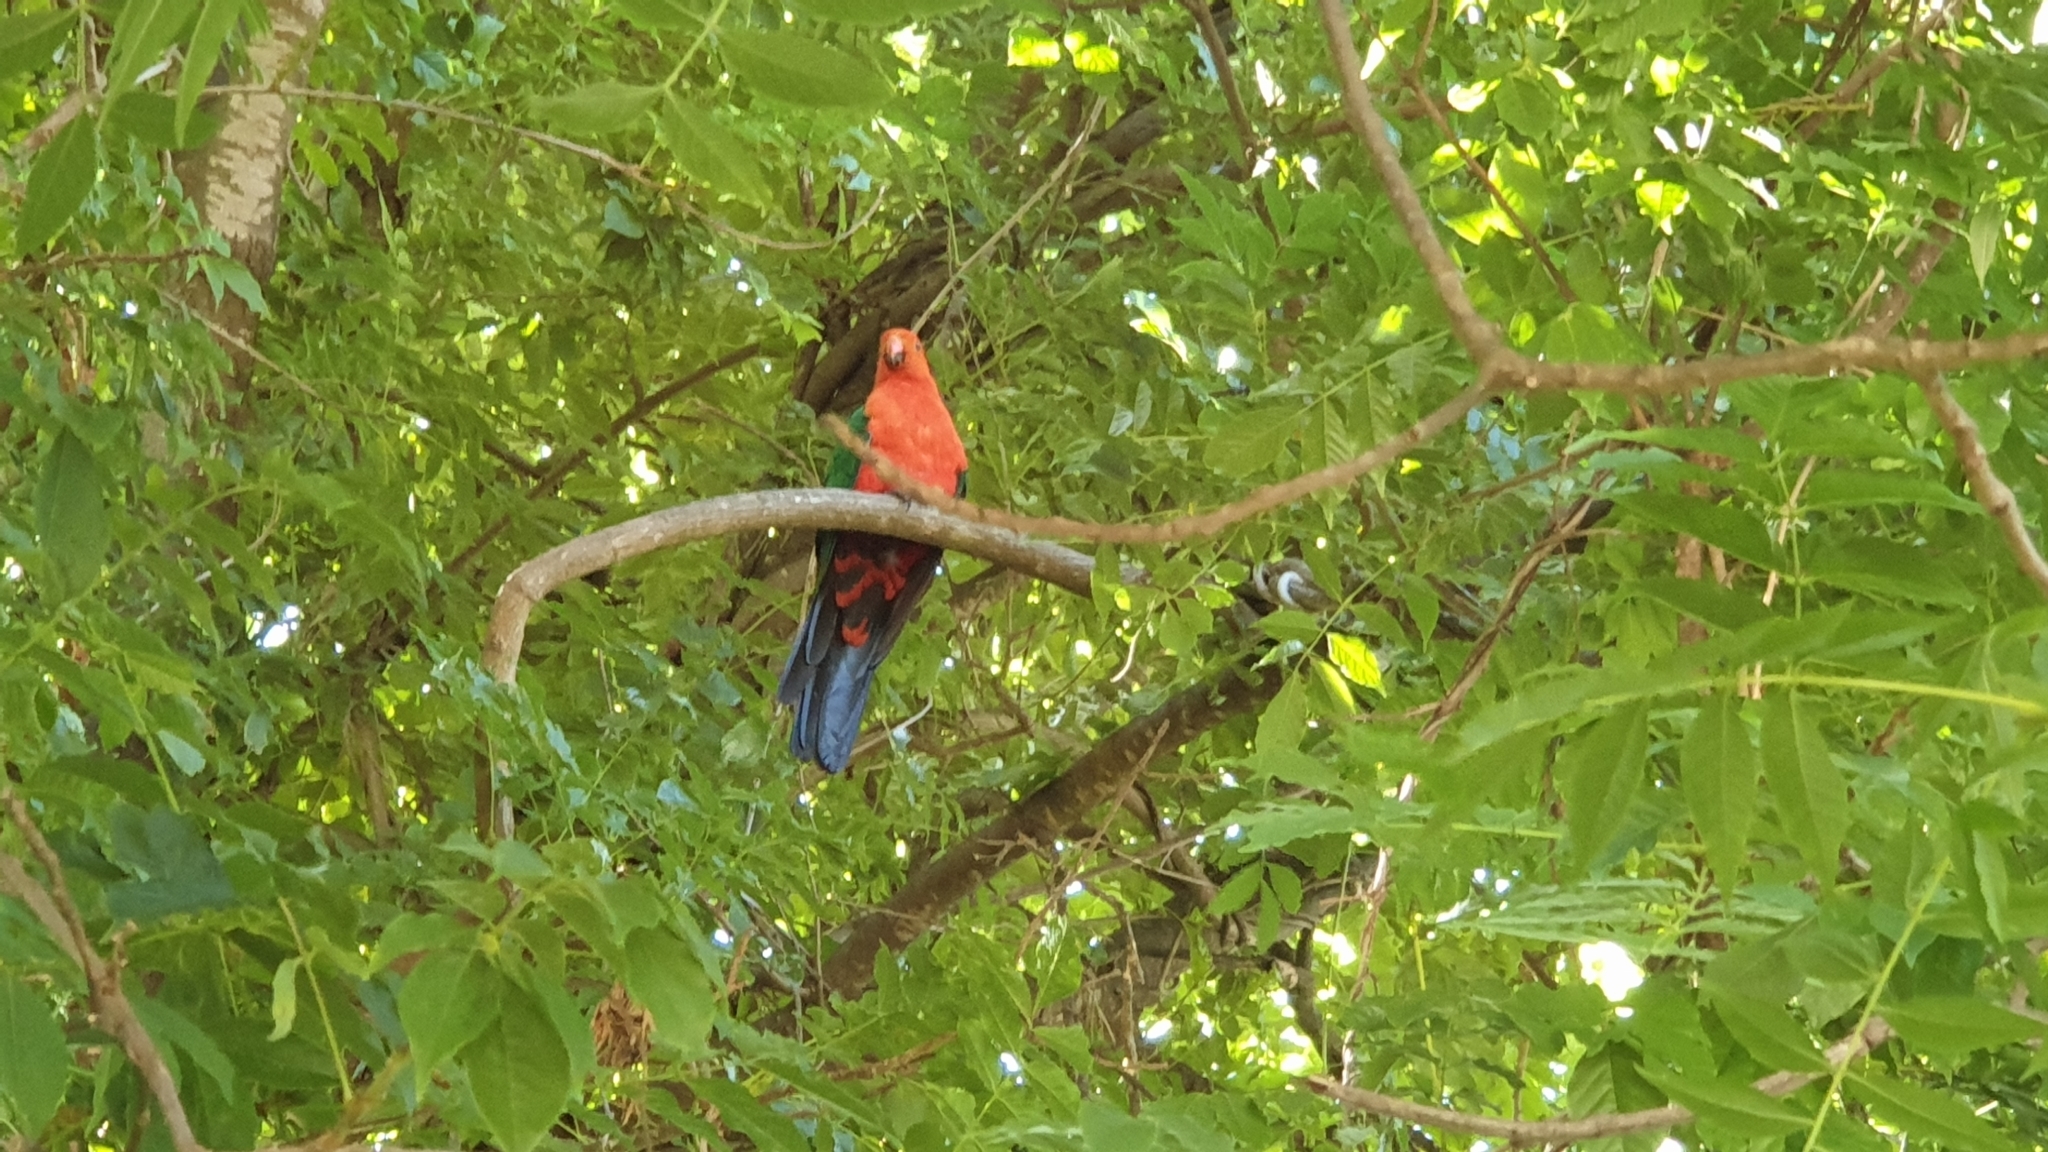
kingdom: Animalia
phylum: Chordata
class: Aves
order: Psittaciformes
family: Psittacidae
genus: Alisterus
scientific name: Alisterus scapularis
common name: Australian king parrot
